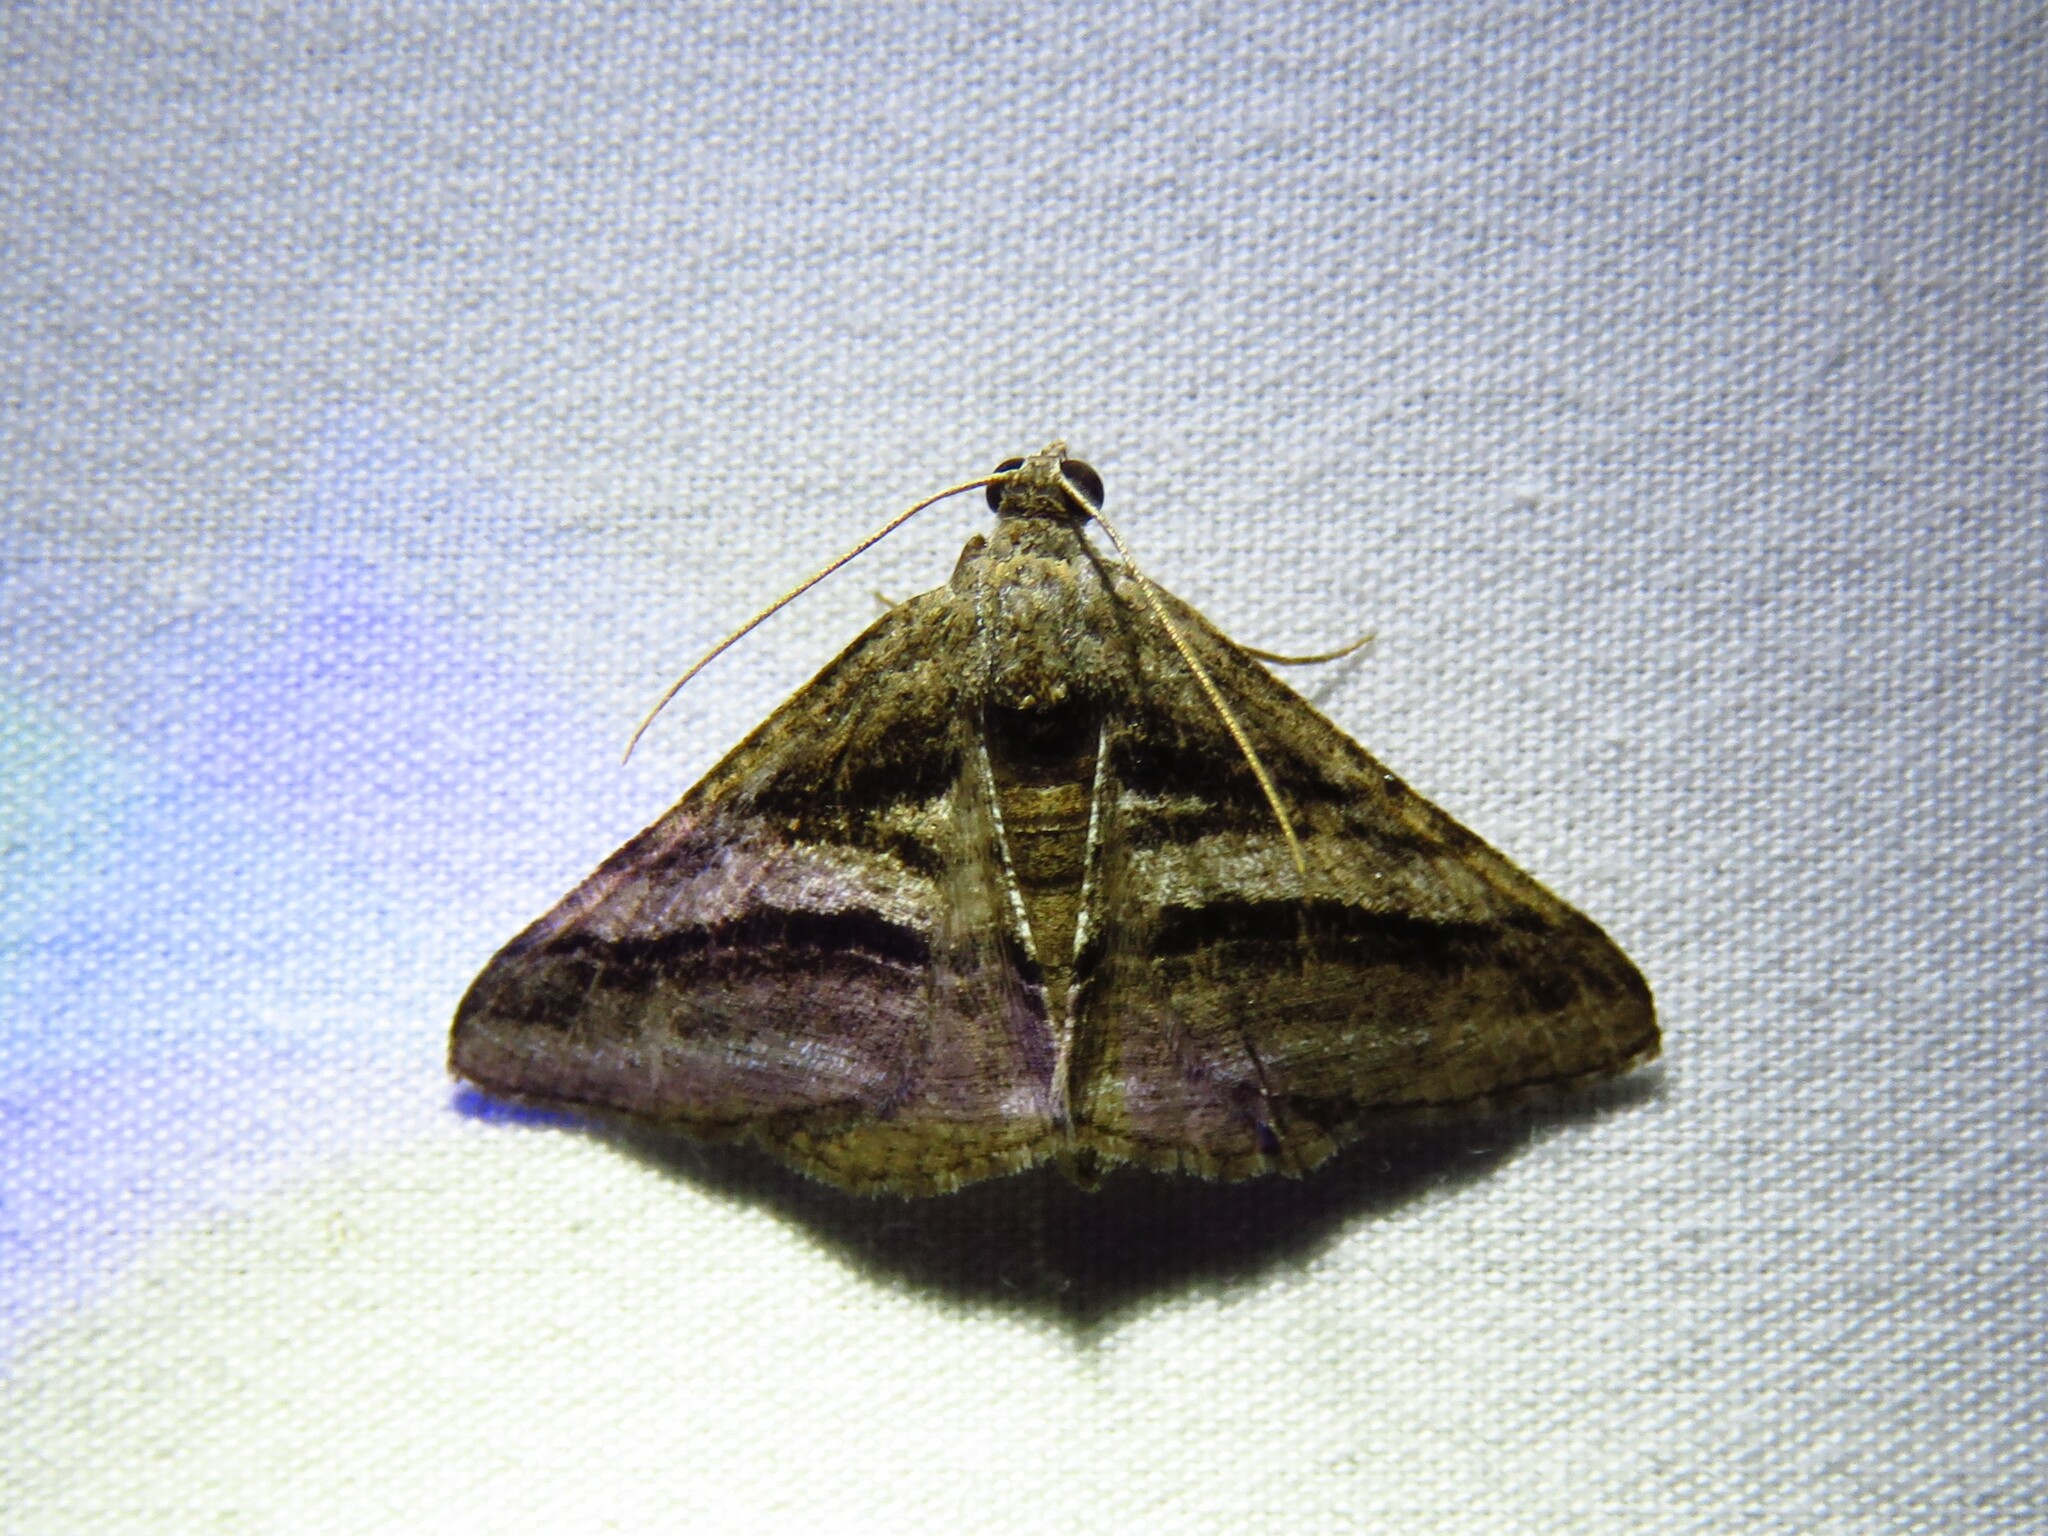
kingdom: Animalia
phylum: Arthropoda
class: Insecta
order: Lepidoptera
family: Geometridae
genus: Digrammia
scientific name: Digrammia atrofasciata
